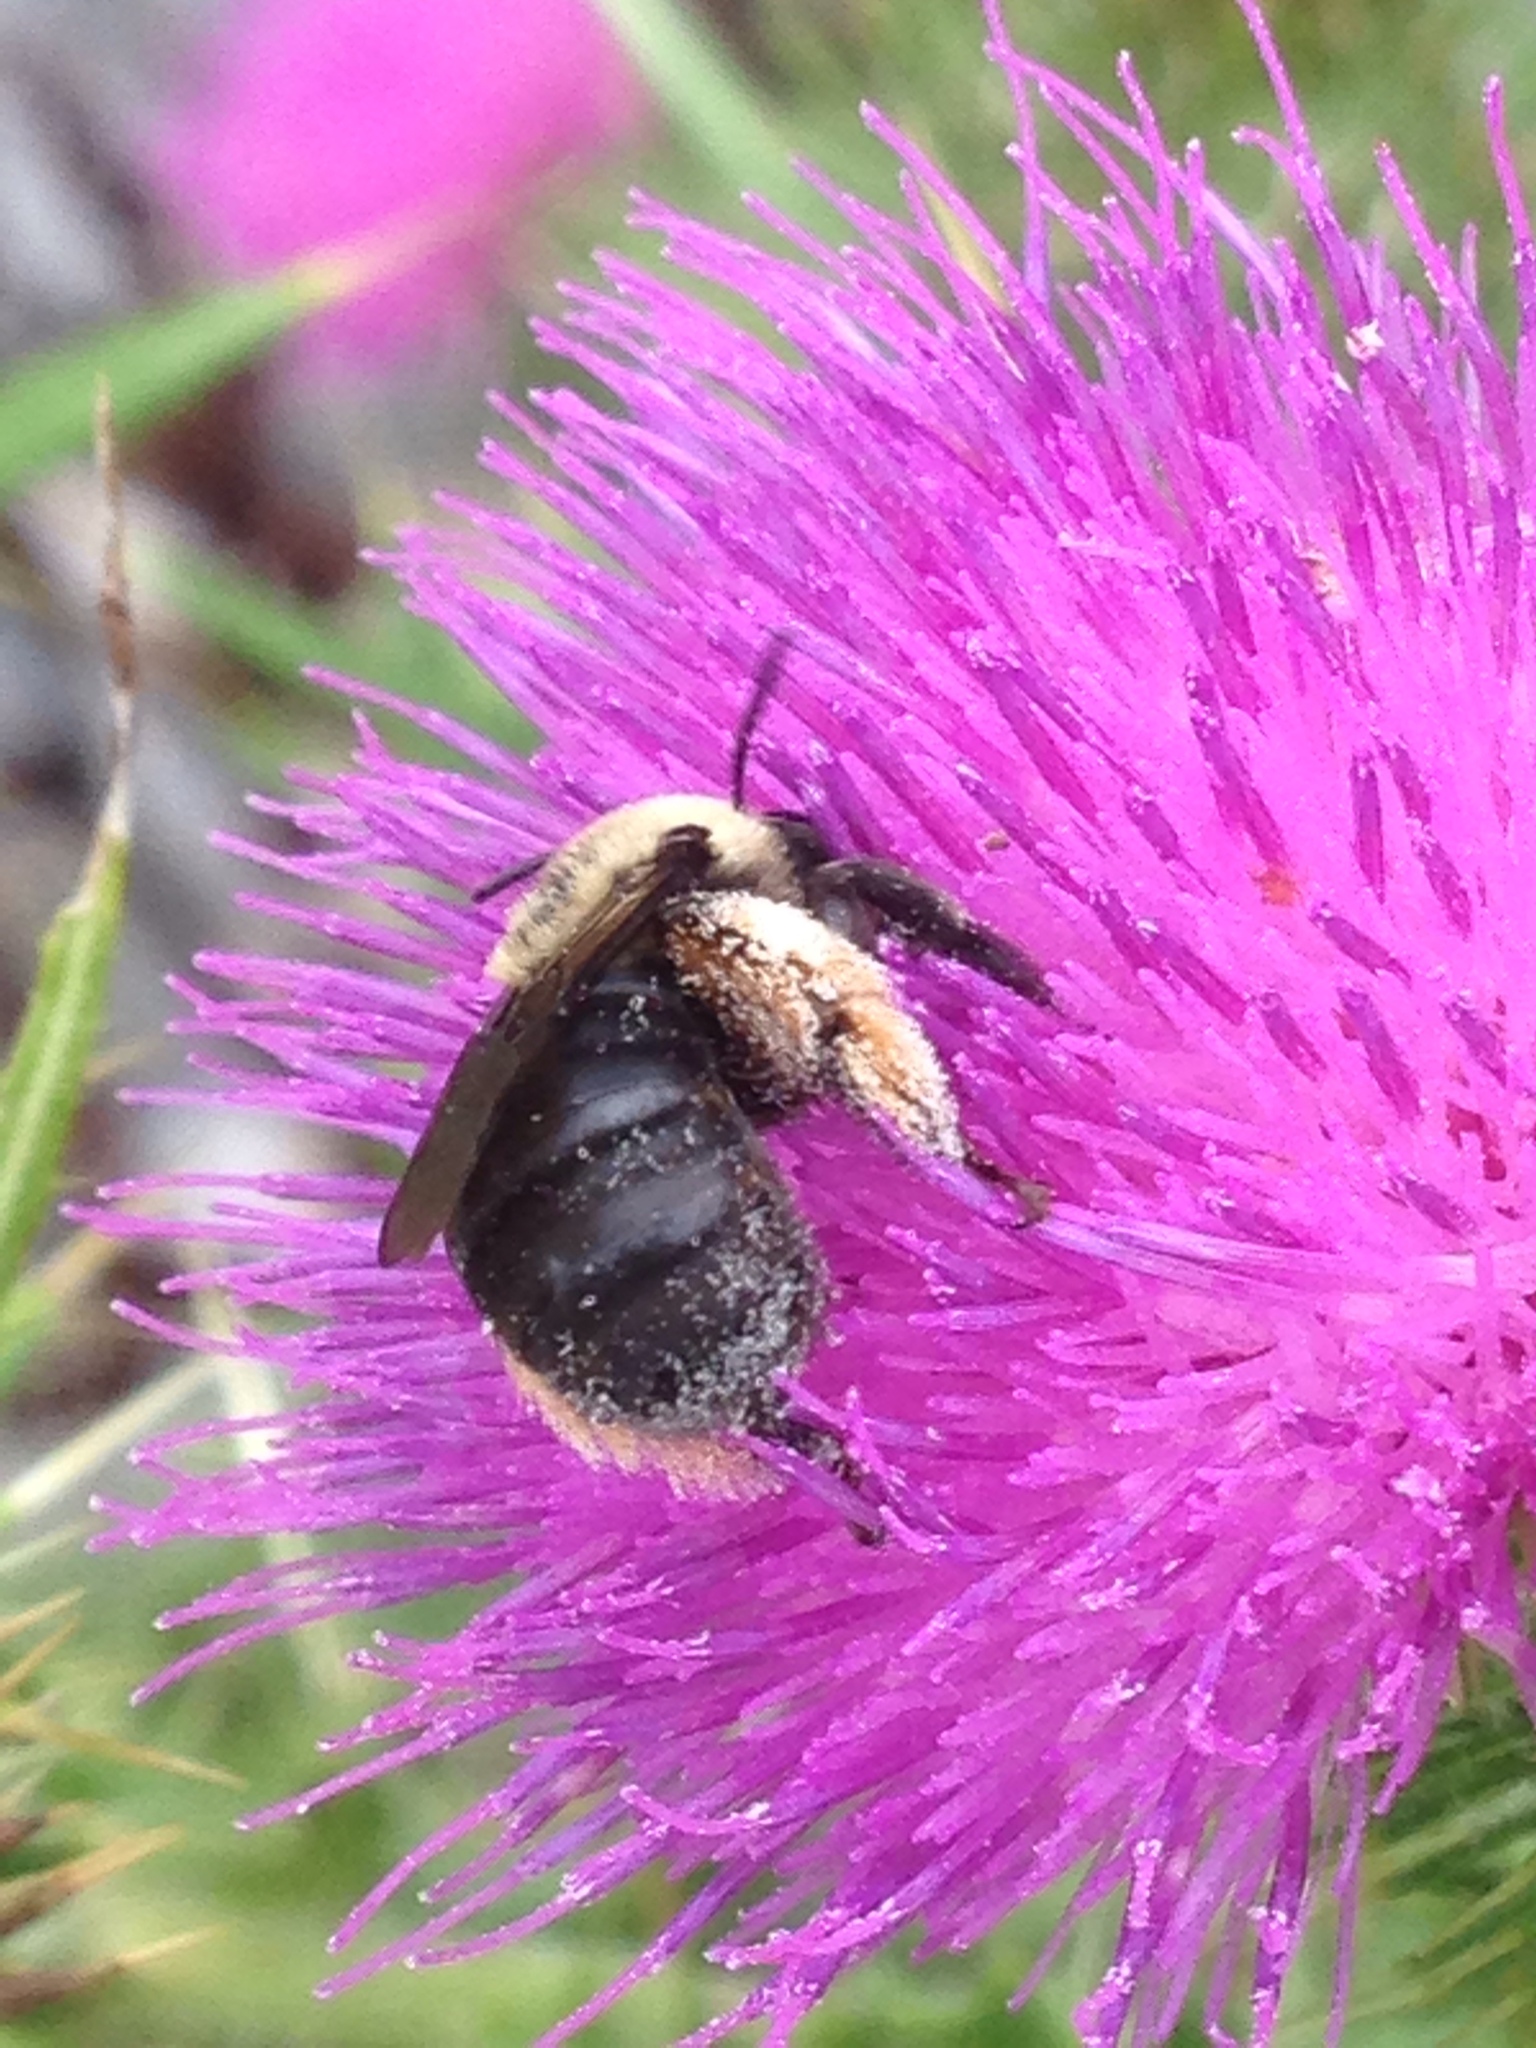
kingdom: Animalia
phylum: Arthropoda
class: Insecta
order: Hymenoptera
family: Apidae
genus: Melissodes
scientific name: Melissodes desponsus
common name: Thistle long-horned bee
